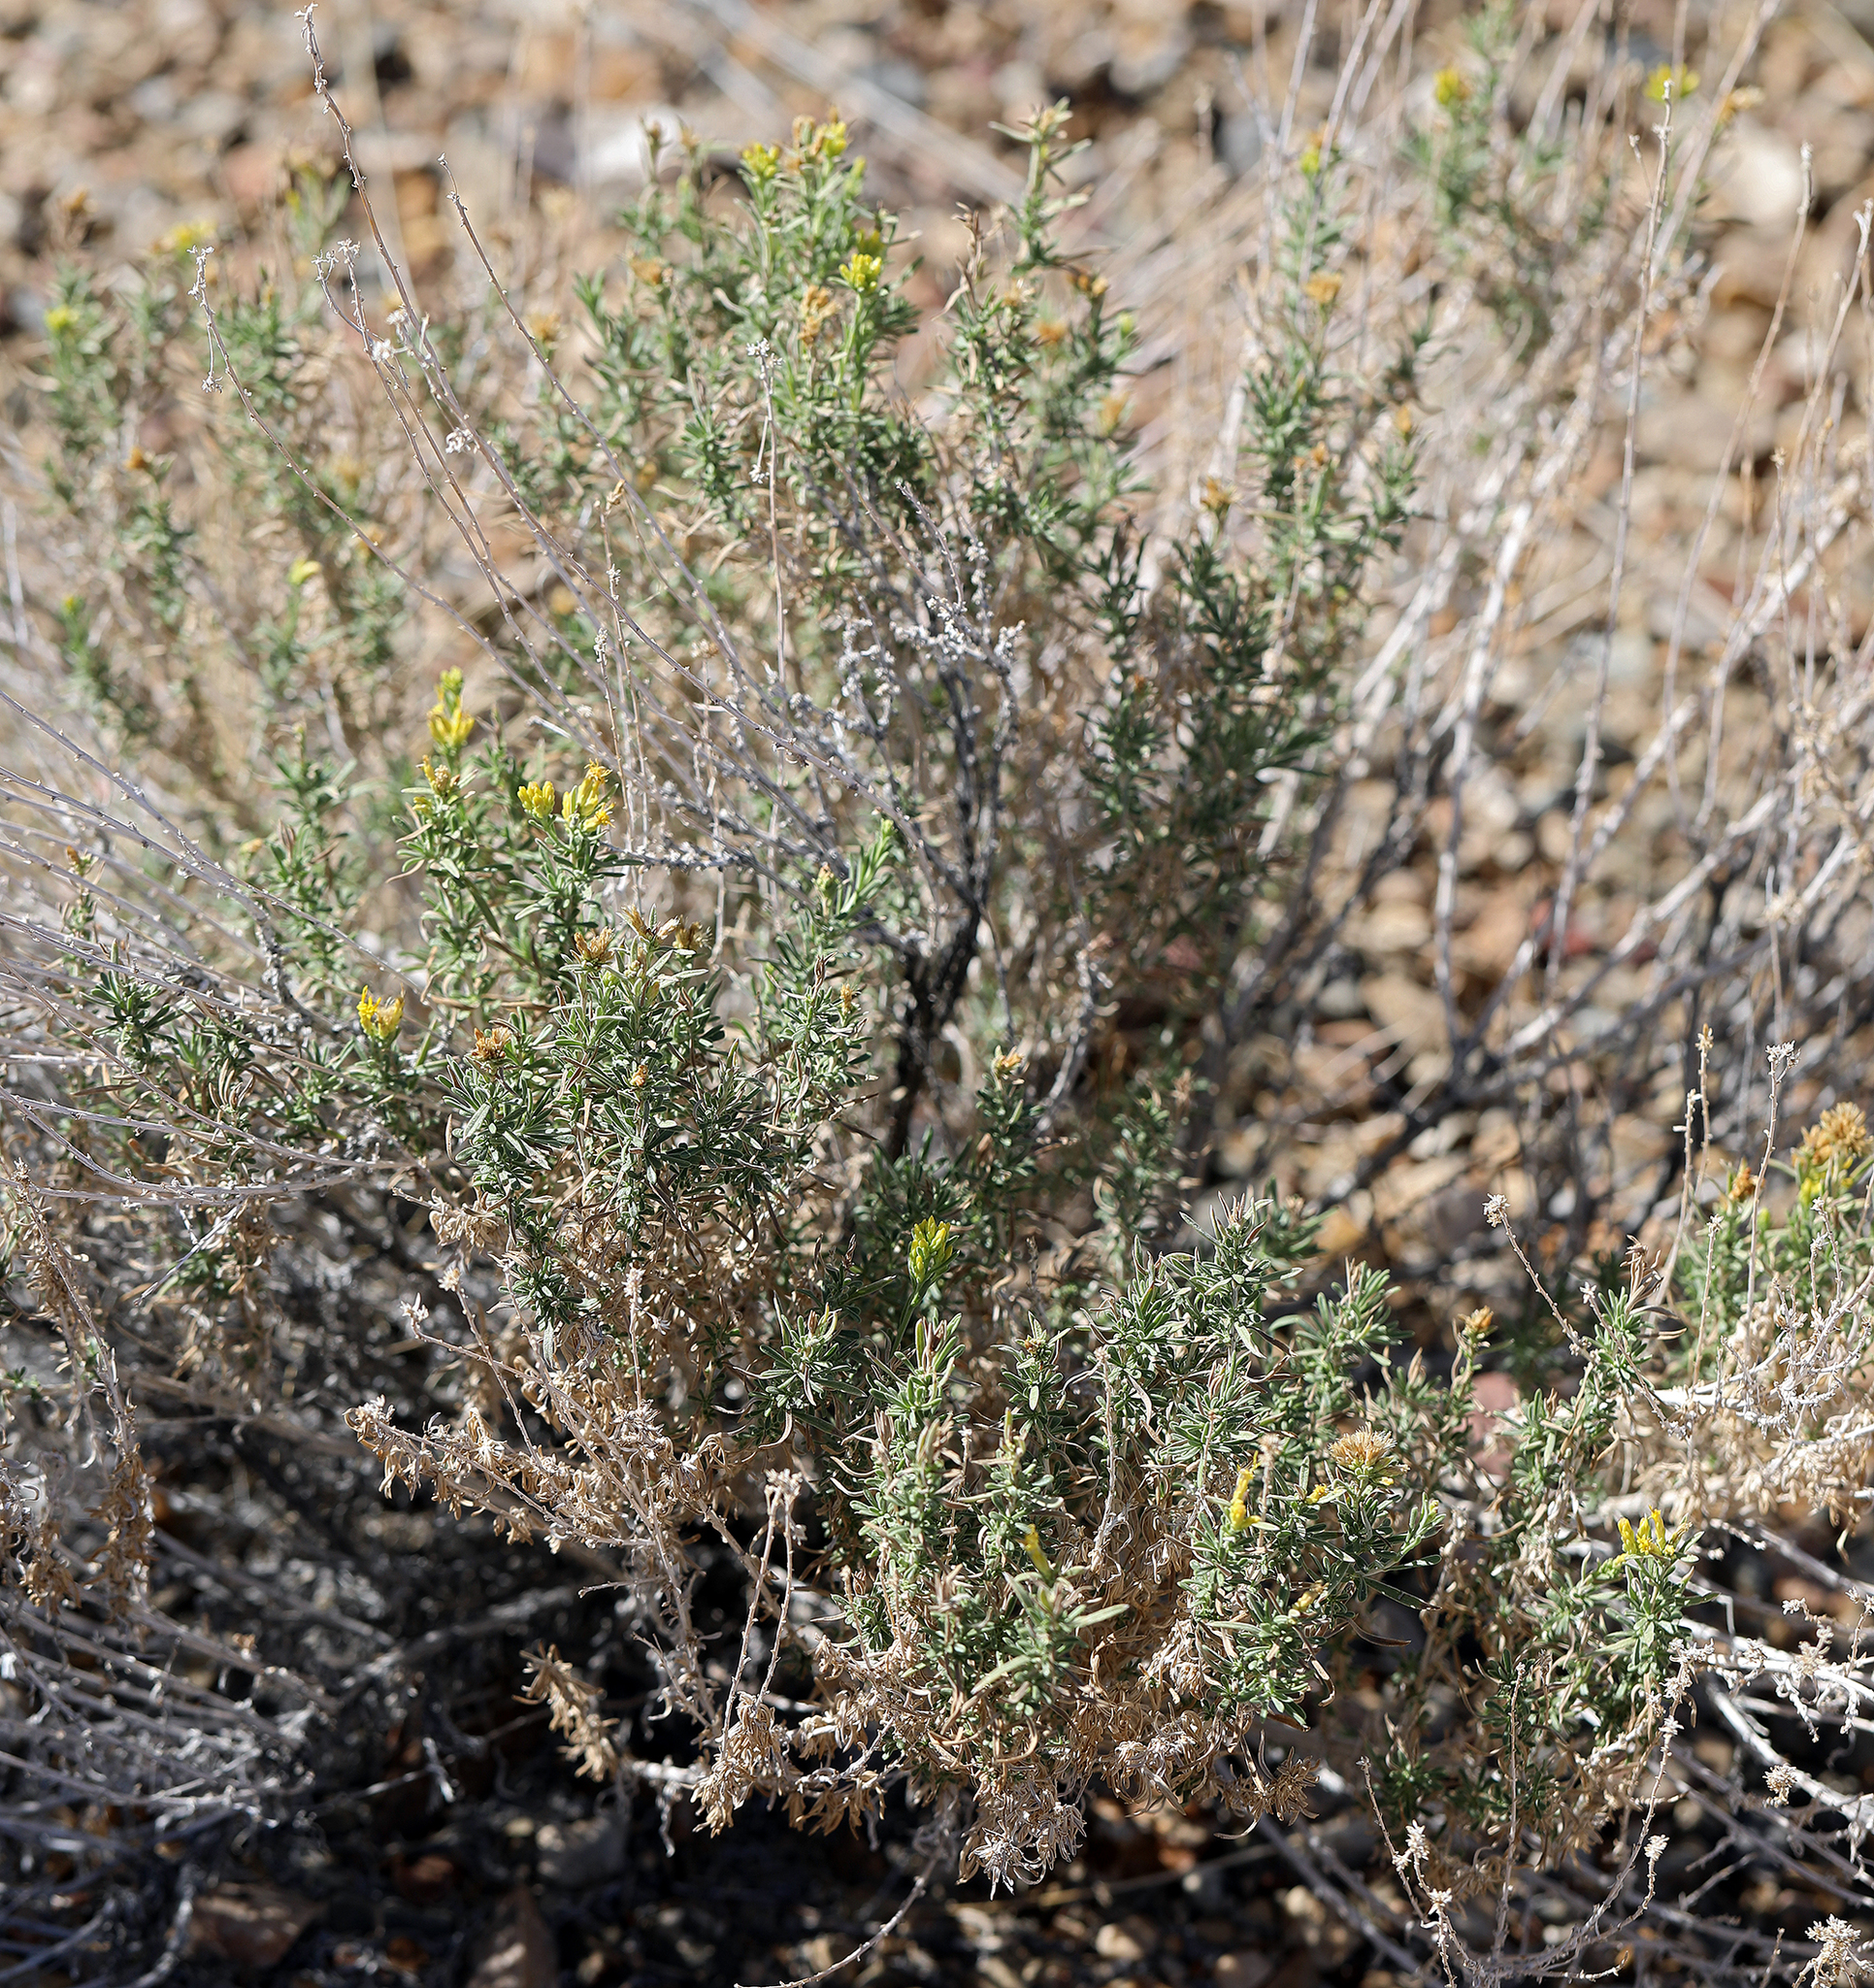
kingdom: Plantae
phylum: Tracheophyta
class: Magnoliopsida
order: Asterales
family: Asteraceae
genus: Chrysothamnus
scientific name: Chrysothamnus viscidiflorus
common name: Yellow rabbitbrush
